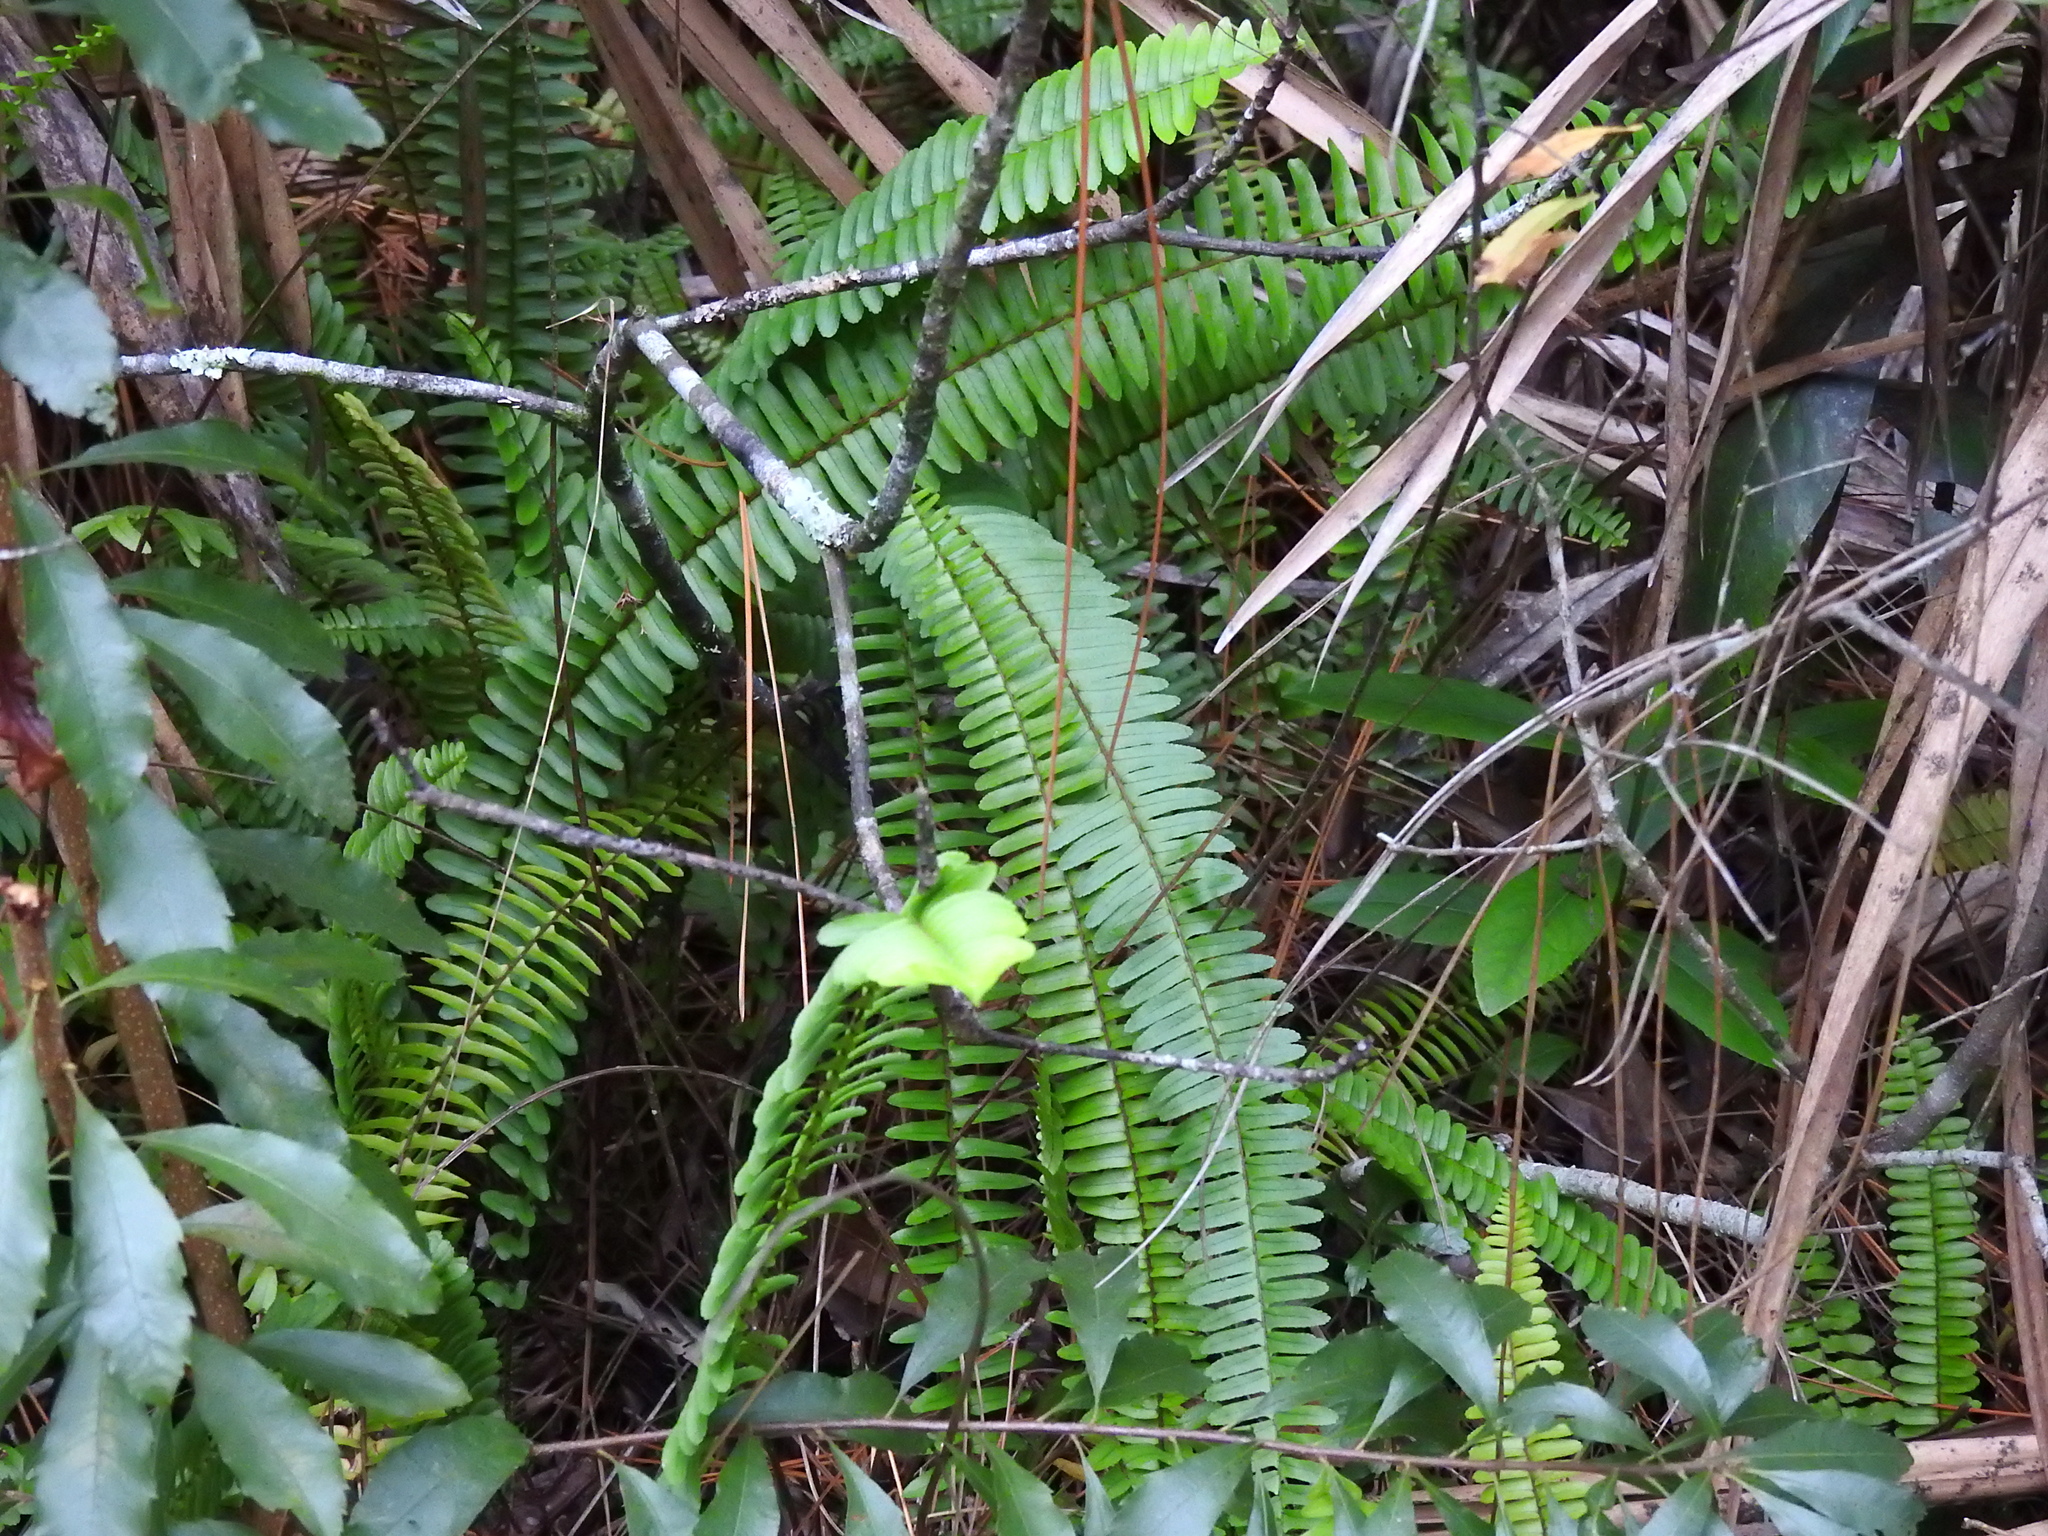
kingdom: Plantae
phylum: Tracheophyta
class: Polypodiopsida
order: Polypodiales
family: Nephrolepidaceae
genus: Nephrolepis
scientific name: Nephrolepis cordifolia
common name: Narrow swordfern
